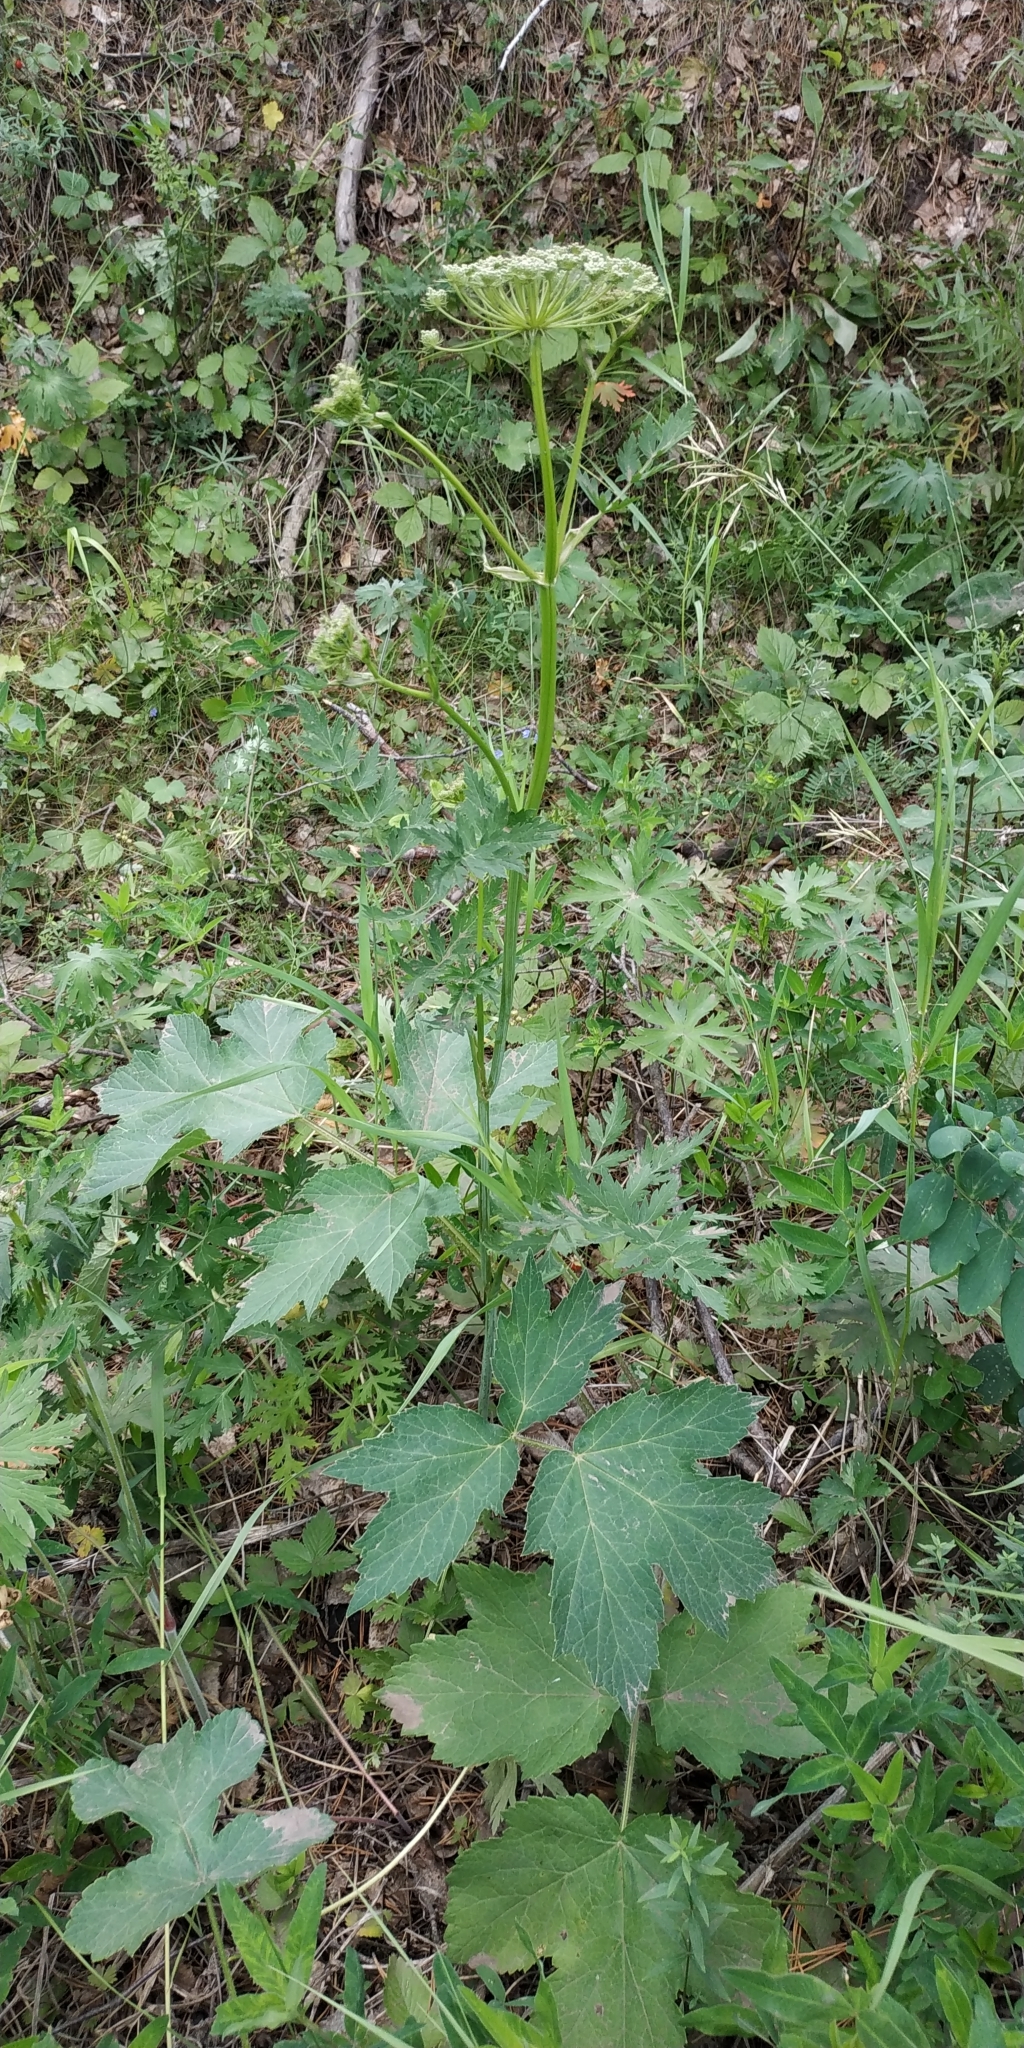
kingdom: Plantae
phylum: Tracheophyta
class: Magnoliopsida
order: Apiales
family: Apiaceae
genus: Heracleum
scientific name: Heracleum sphondylium
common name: Hogweed
